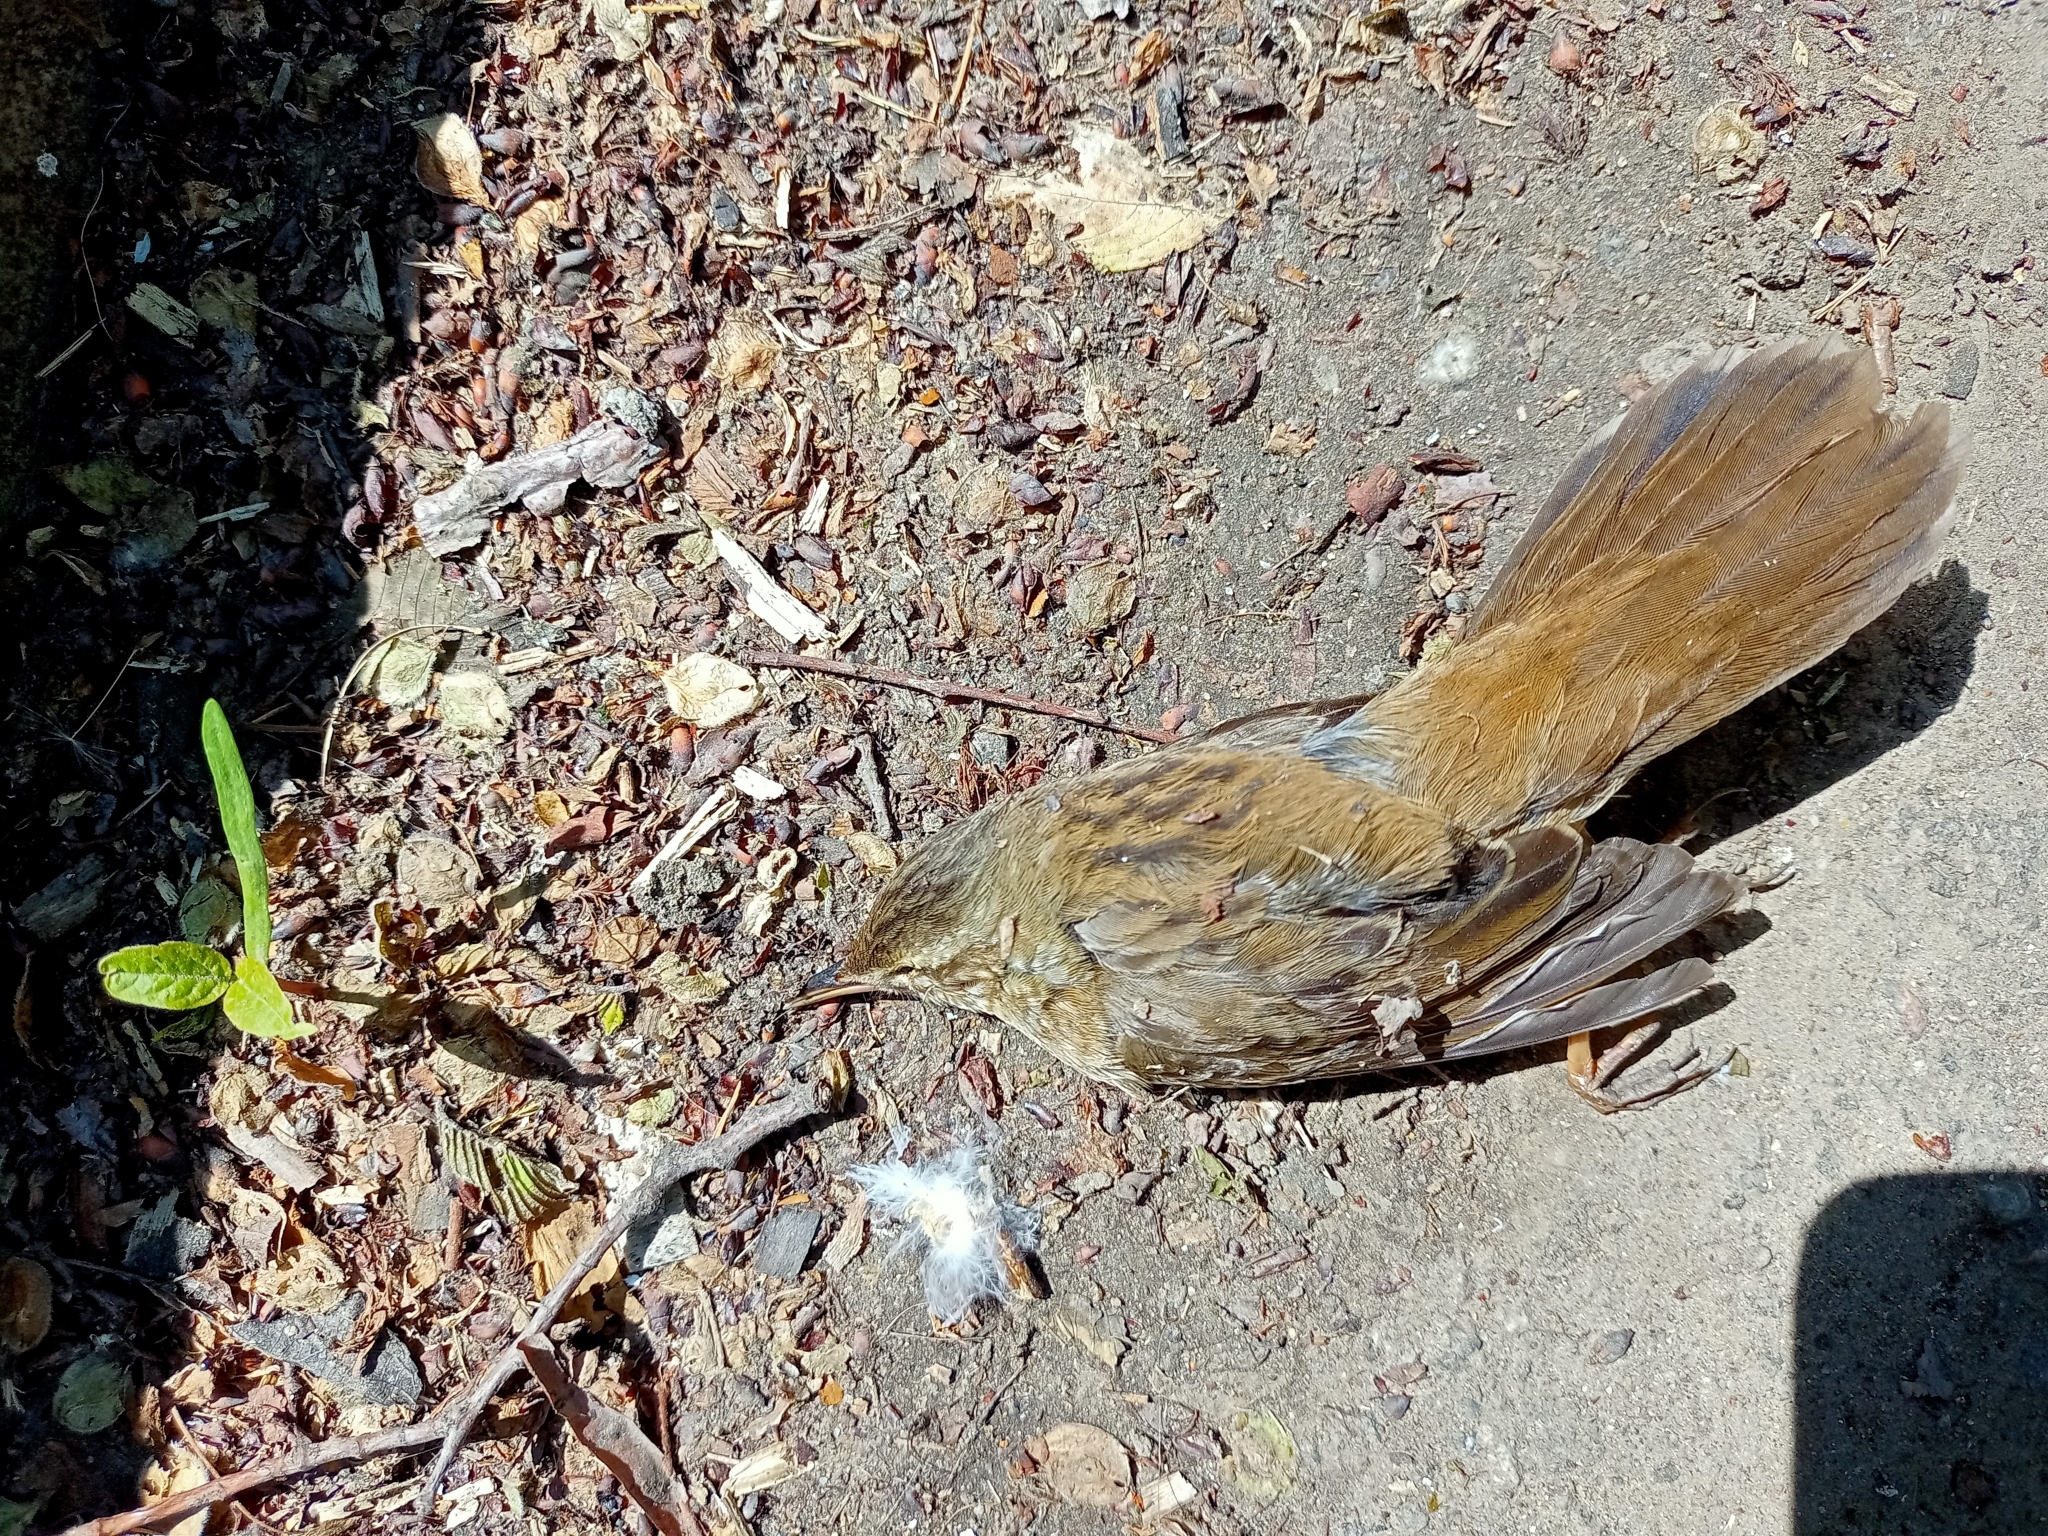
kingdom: Animalia
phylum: Chordata
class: Aves
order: Passeriformes
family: Locustellidae
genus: Locustella
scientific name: Locustella certhiola
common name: Pallas's grasshopper warbler
